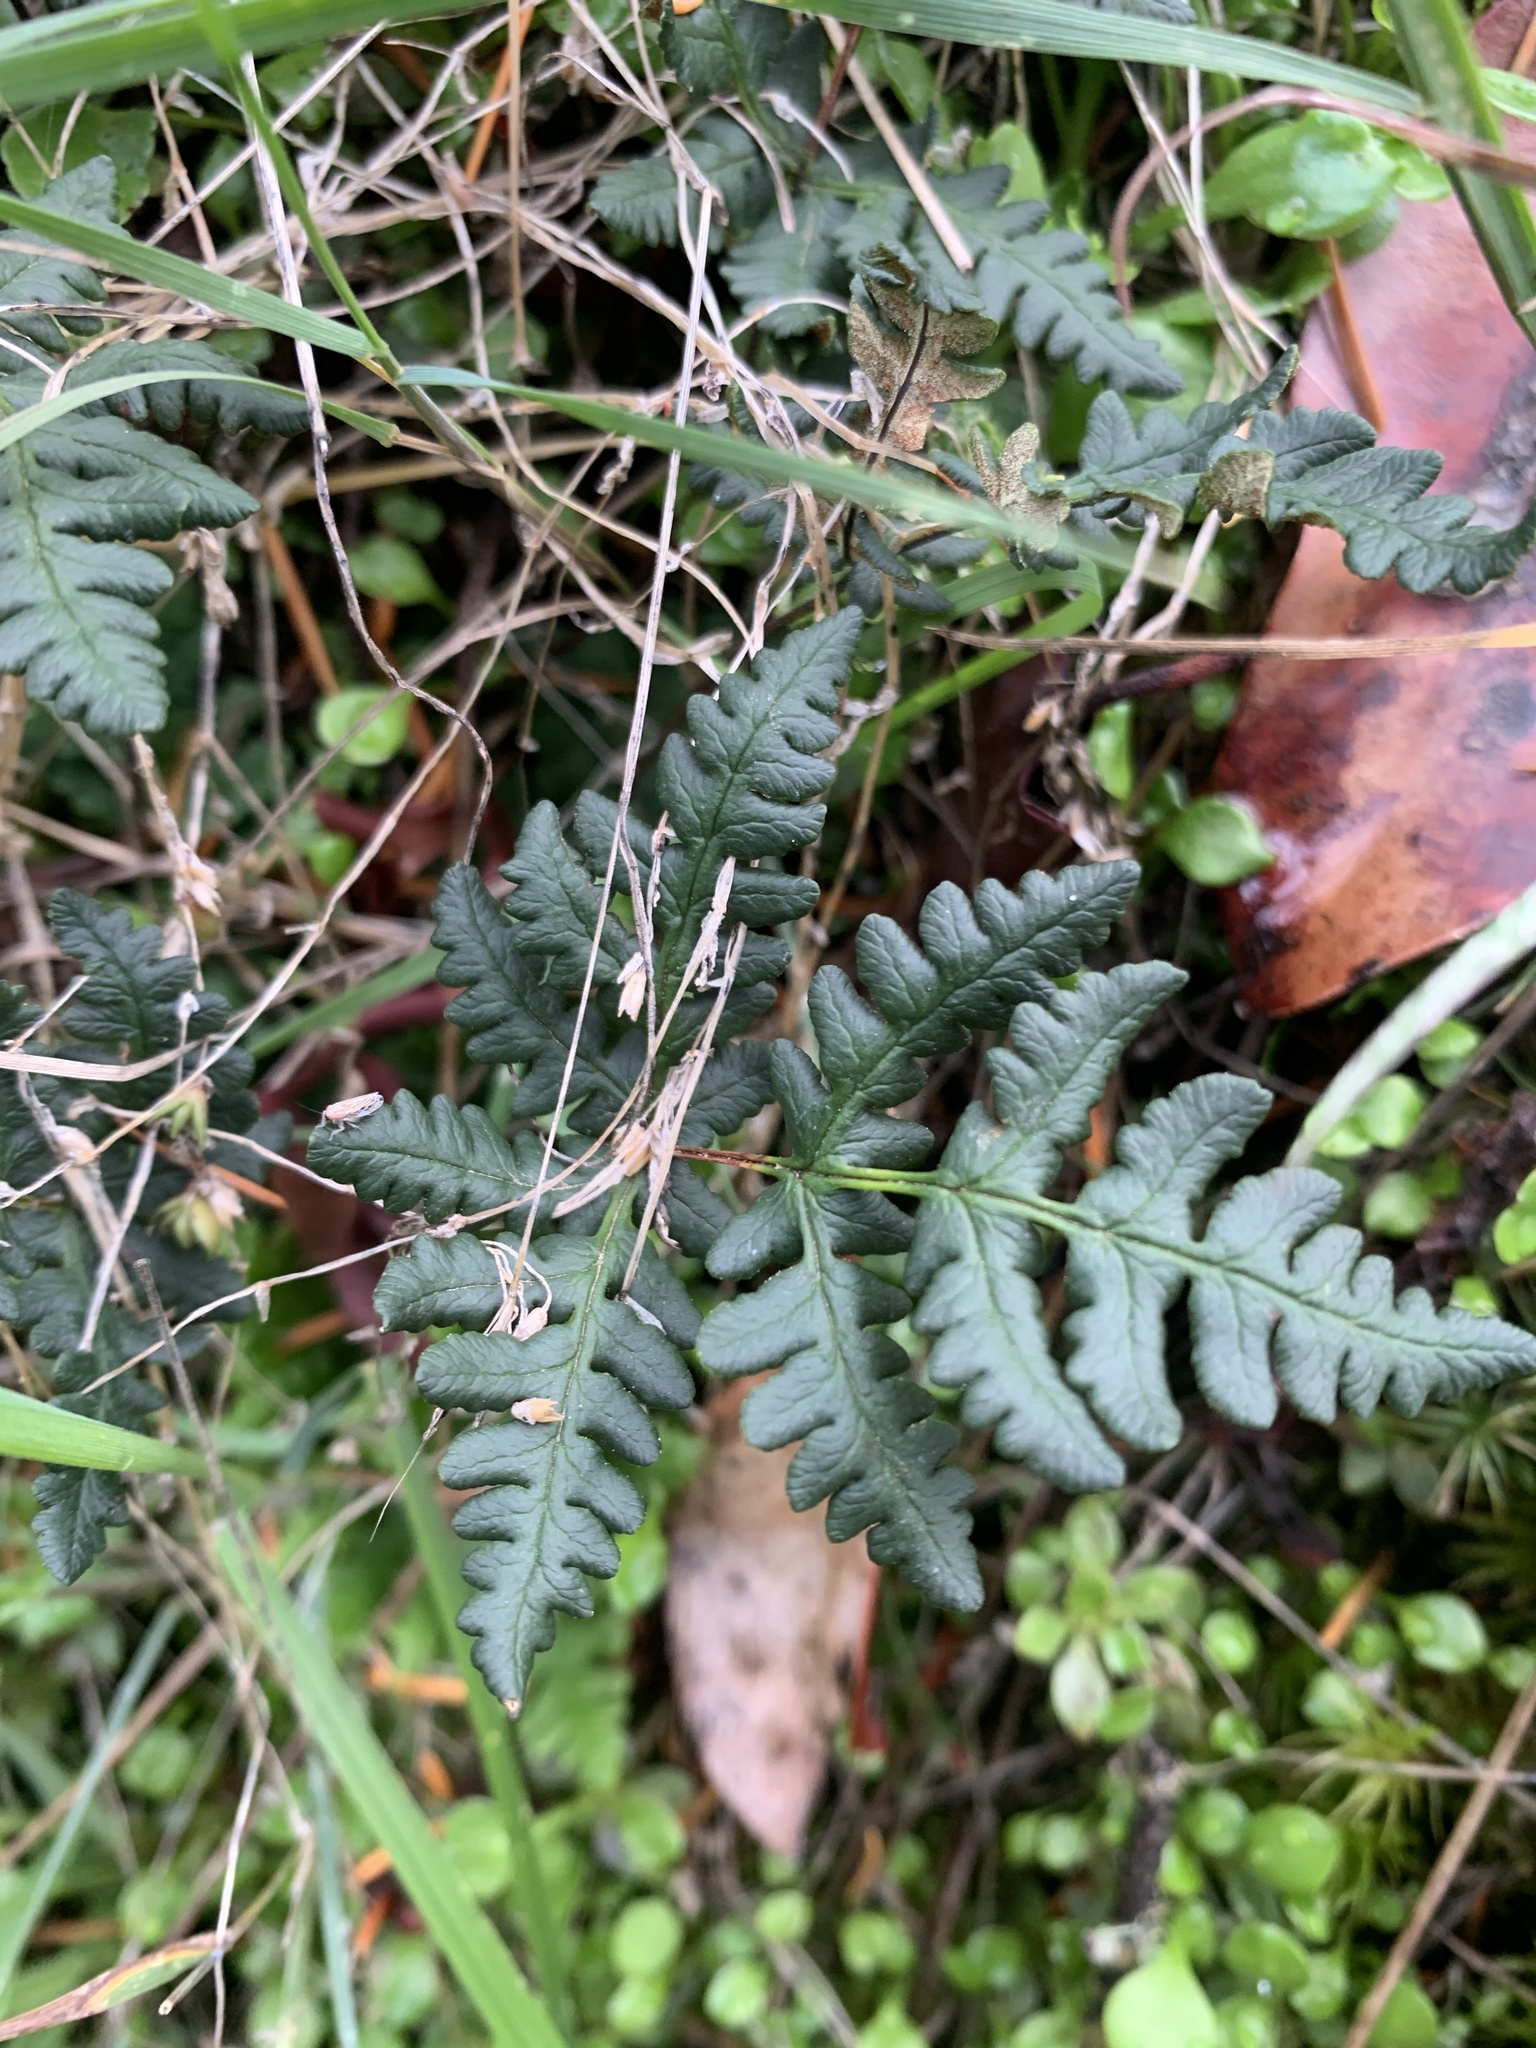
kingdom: Plantae
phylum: Tracheophyta
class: Polypodiopsida
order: Polypodiales
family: Pteridaceae
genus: Pentagramma
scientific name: Pentagramma triangularis
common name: Gold fern
